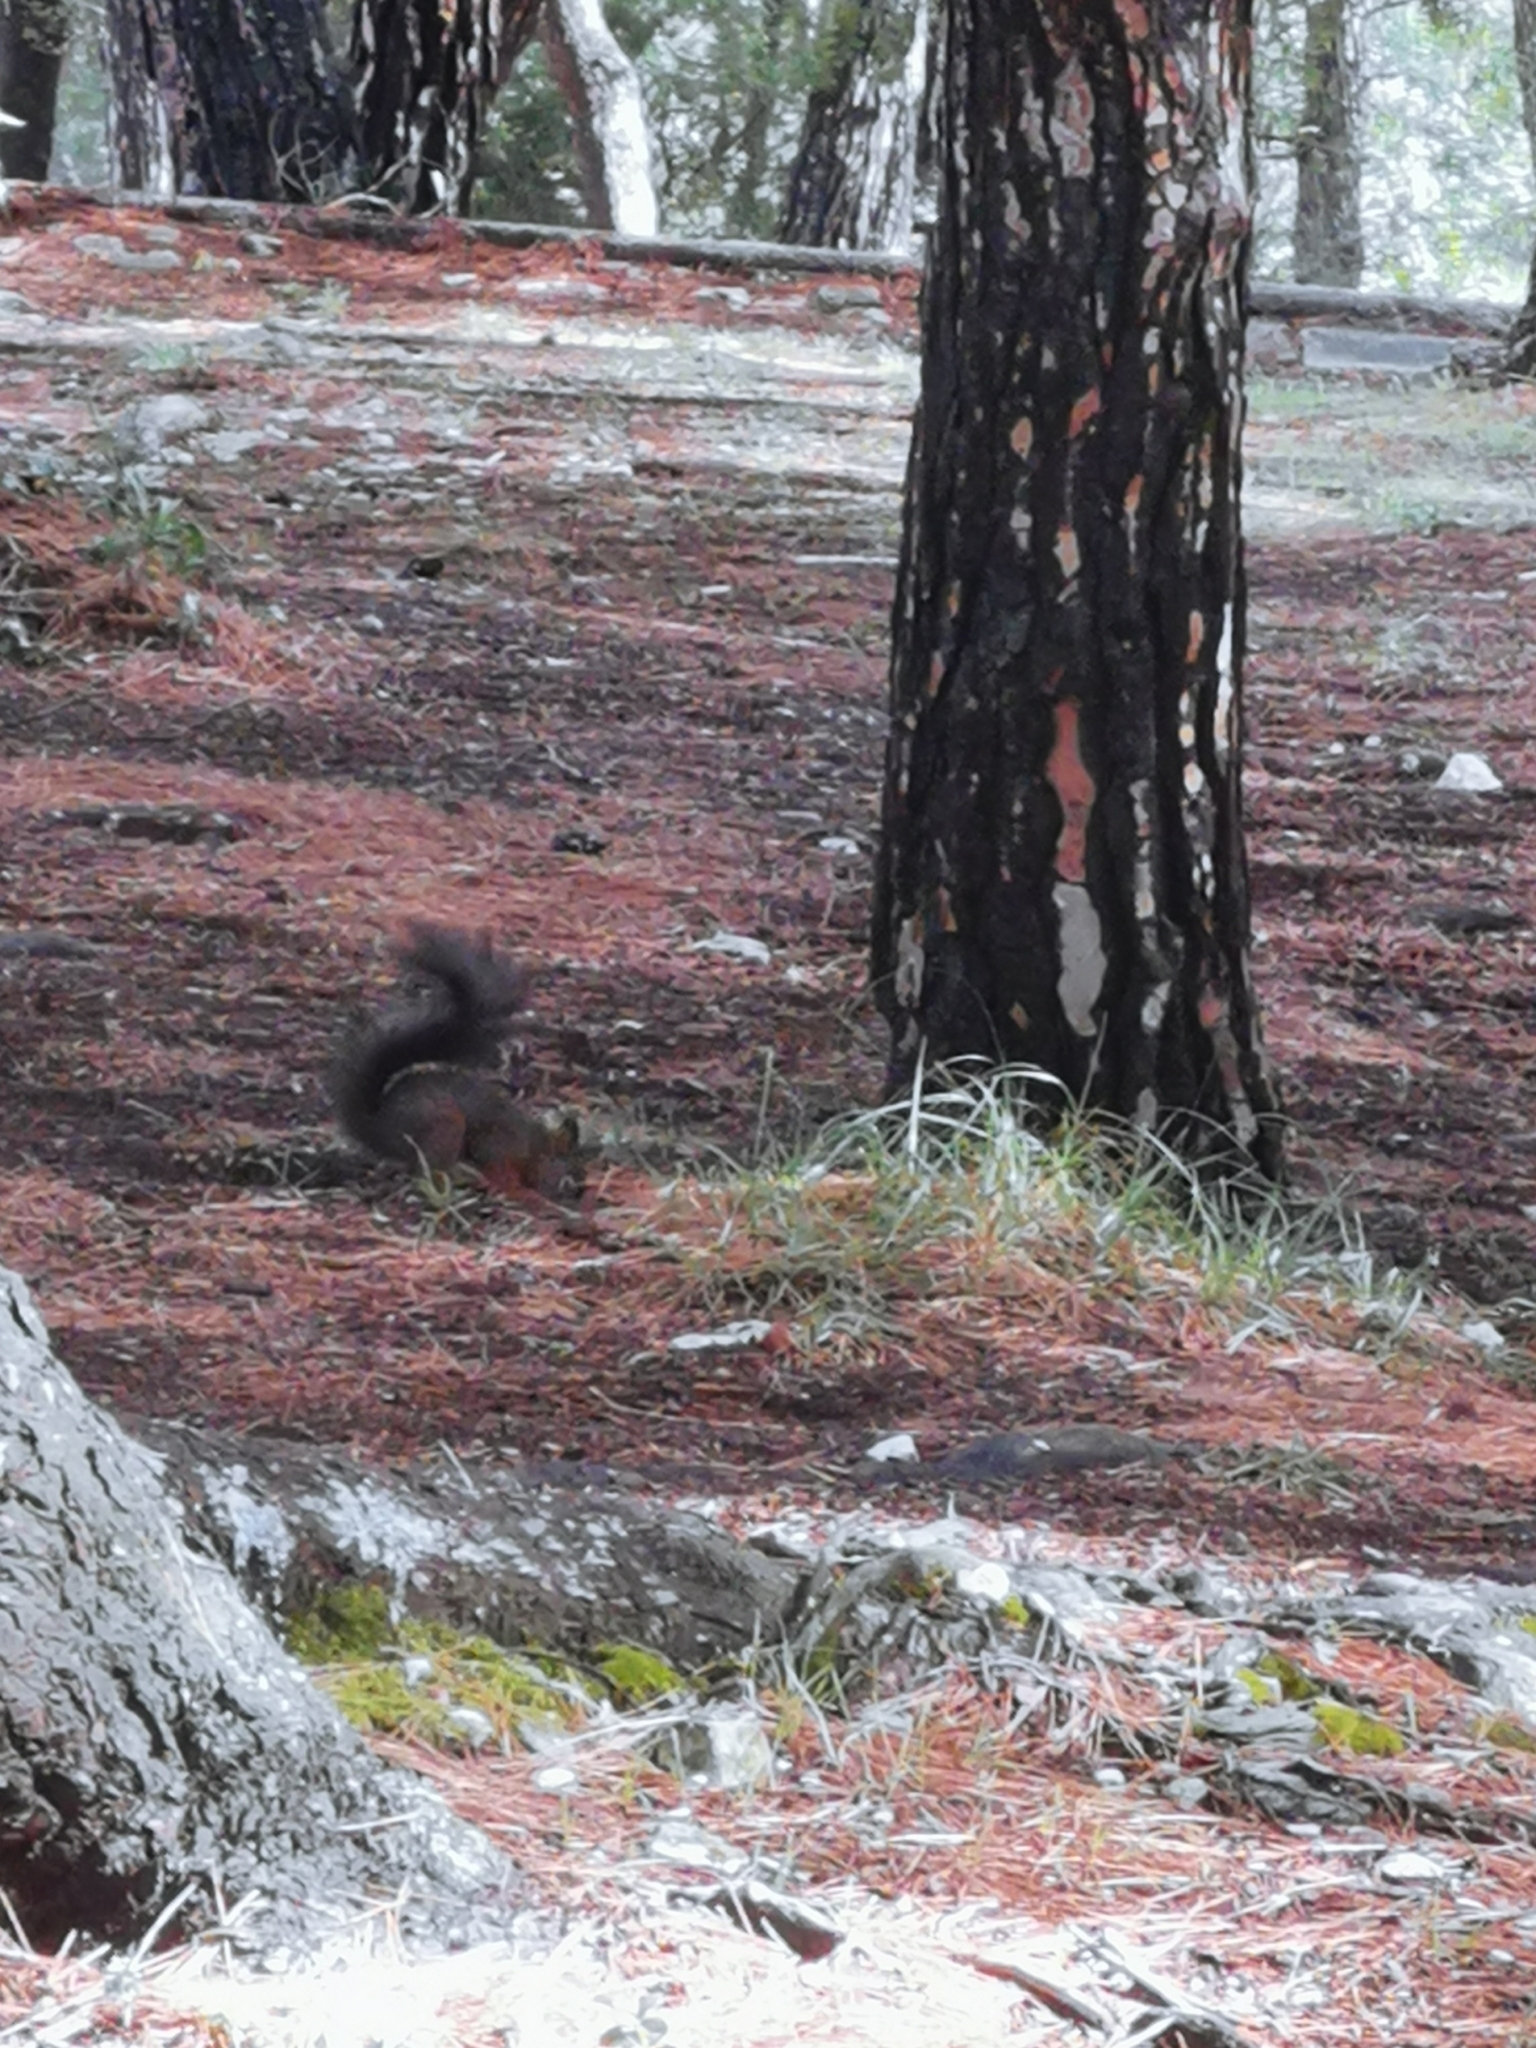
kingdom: Animalia
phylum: Chordata
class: Mammalia
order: Rodentia
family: Sciuridae
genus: Sciurus
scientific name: Sciurus vulgaris
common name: Eurasian red squirrel
